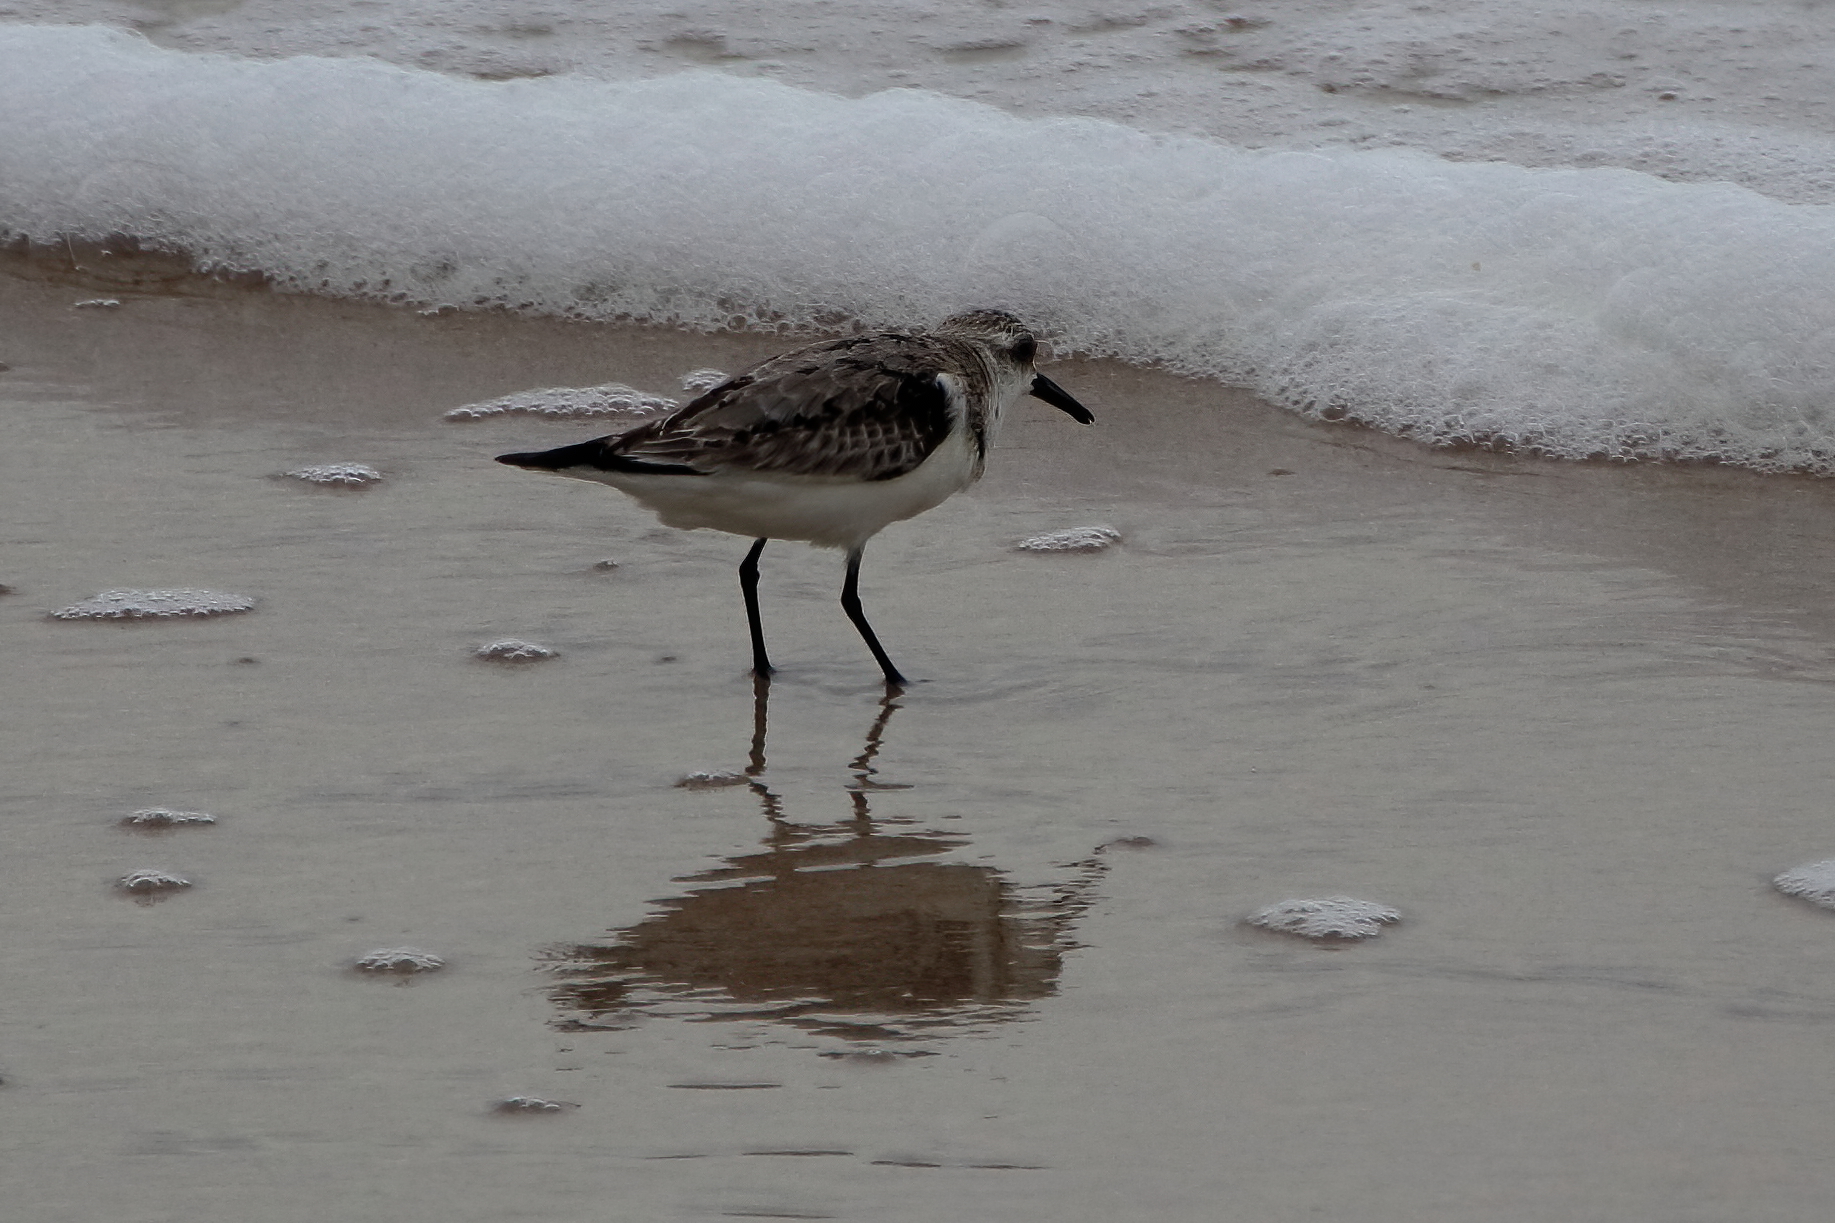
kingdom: Animalia
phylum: Chordata
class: Aves
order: Charadriiformes
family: Scolopacidae
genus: Calidris
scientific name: Calidris alba
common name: Sanderling
